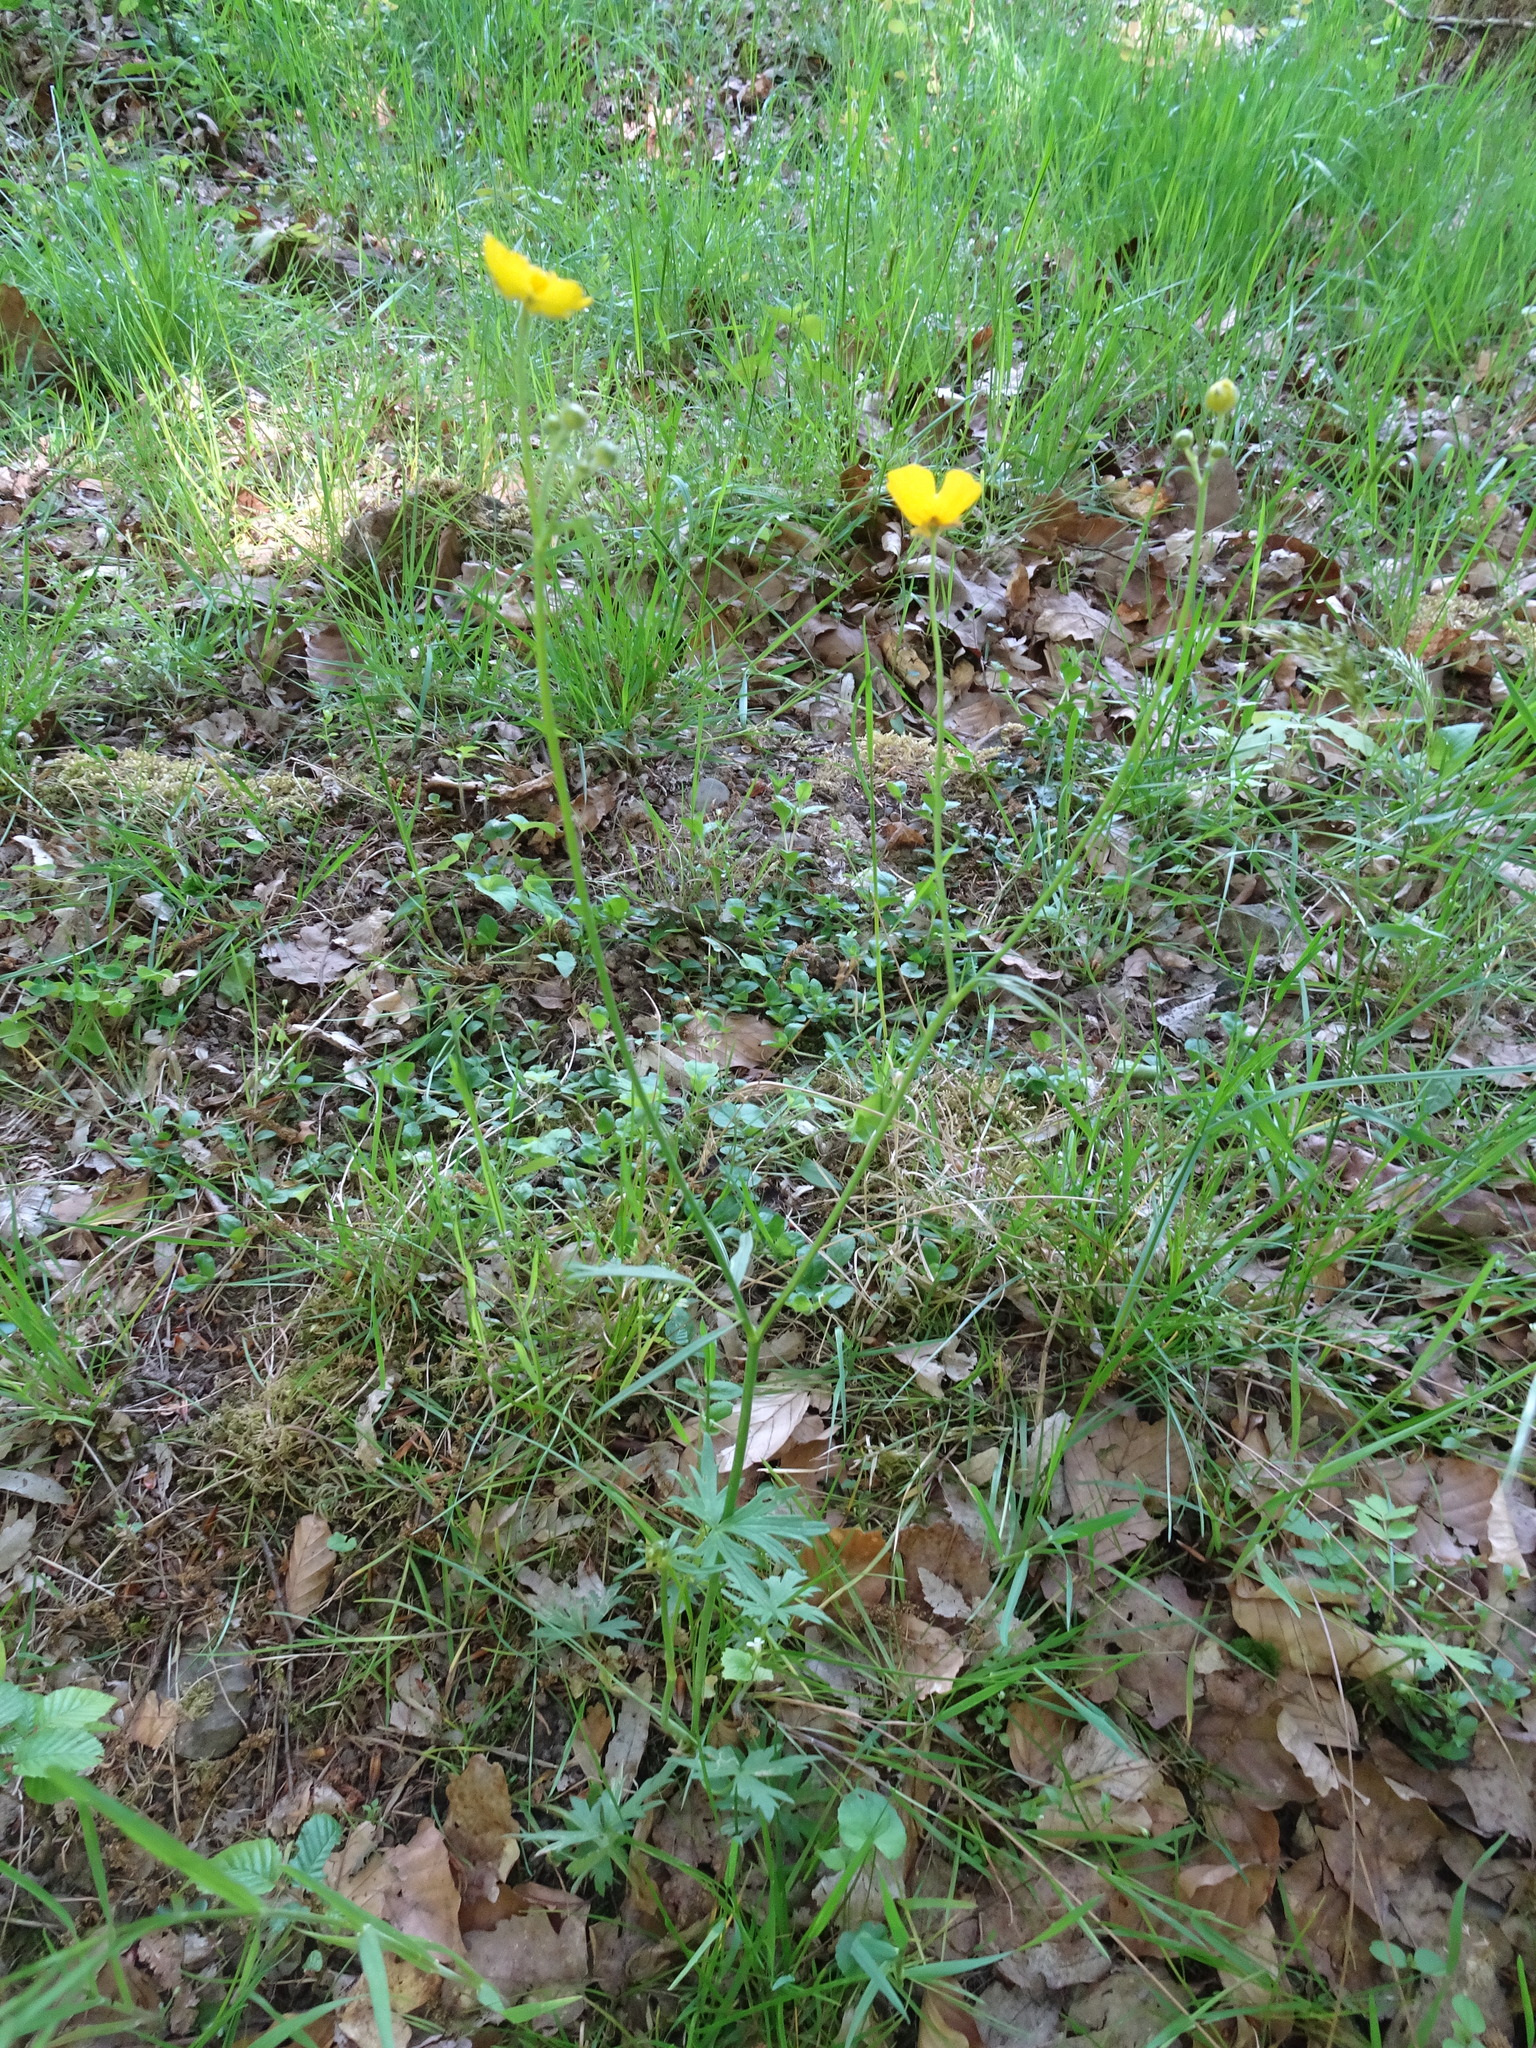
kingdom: Plantae
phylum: Tracheophyta
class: Magnoliopsida
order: Ranunculales
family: Ranunculaceae
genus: Ranunculus
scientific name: Ranunculus acris
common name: Meadow buttercup
